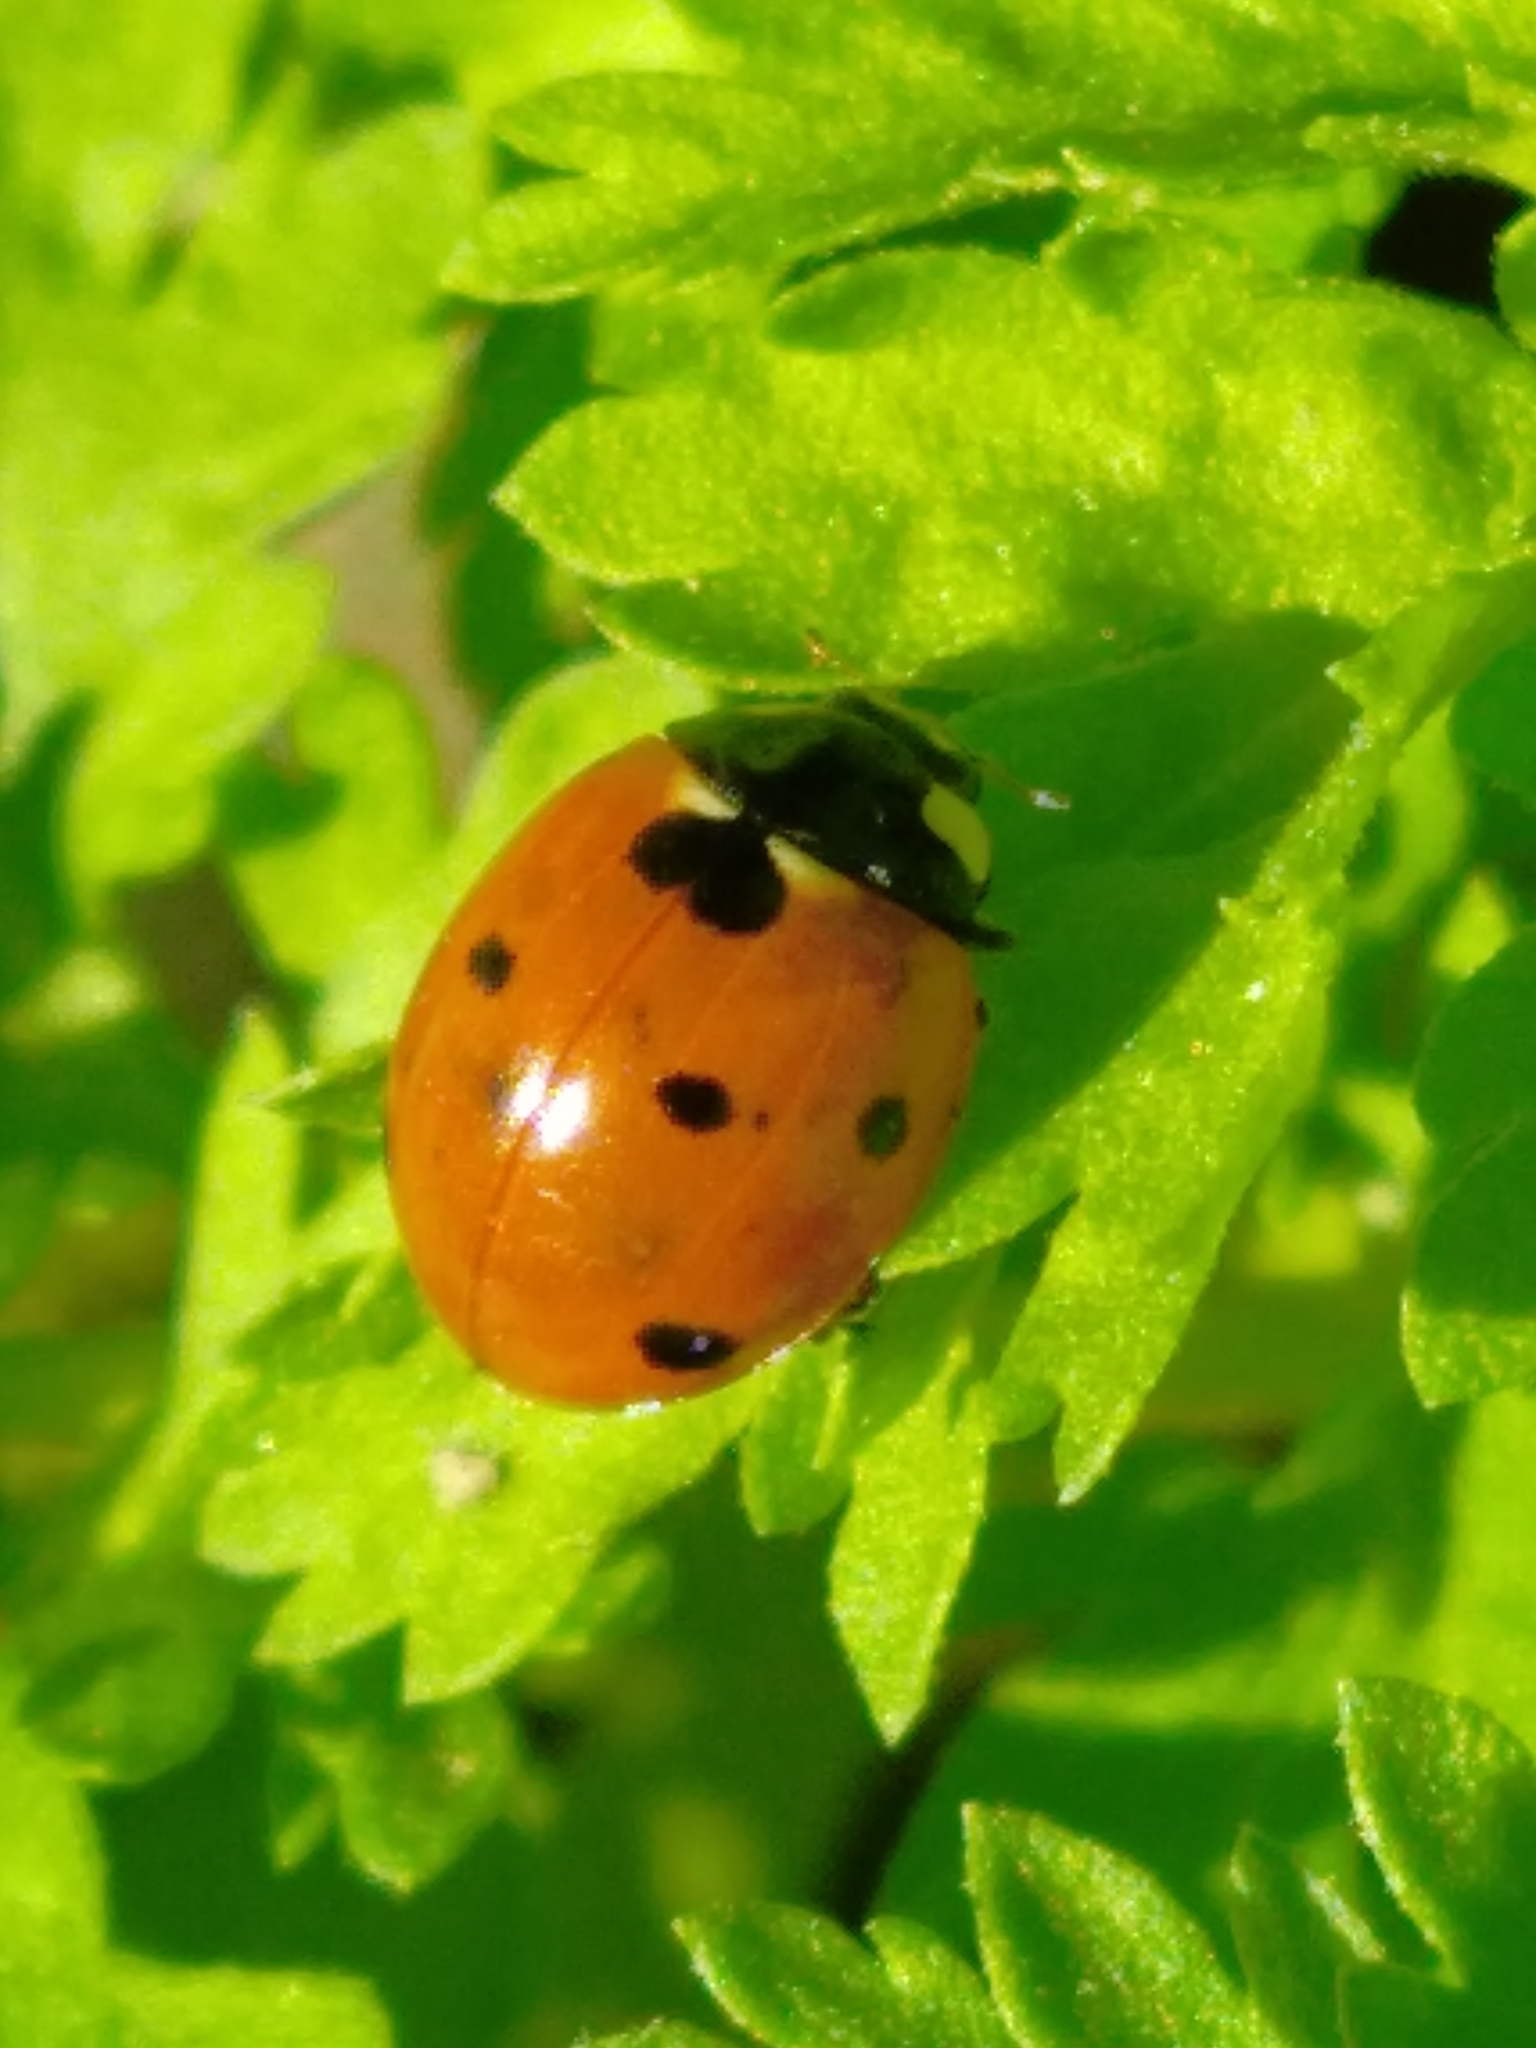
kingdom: Animalia
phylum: Arthropoda
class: Insecta
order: Coleoptera
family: Coccinellidae
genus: Coccinella
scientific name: Coccinella septempunctata
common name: Sevenspotted lady beetle
